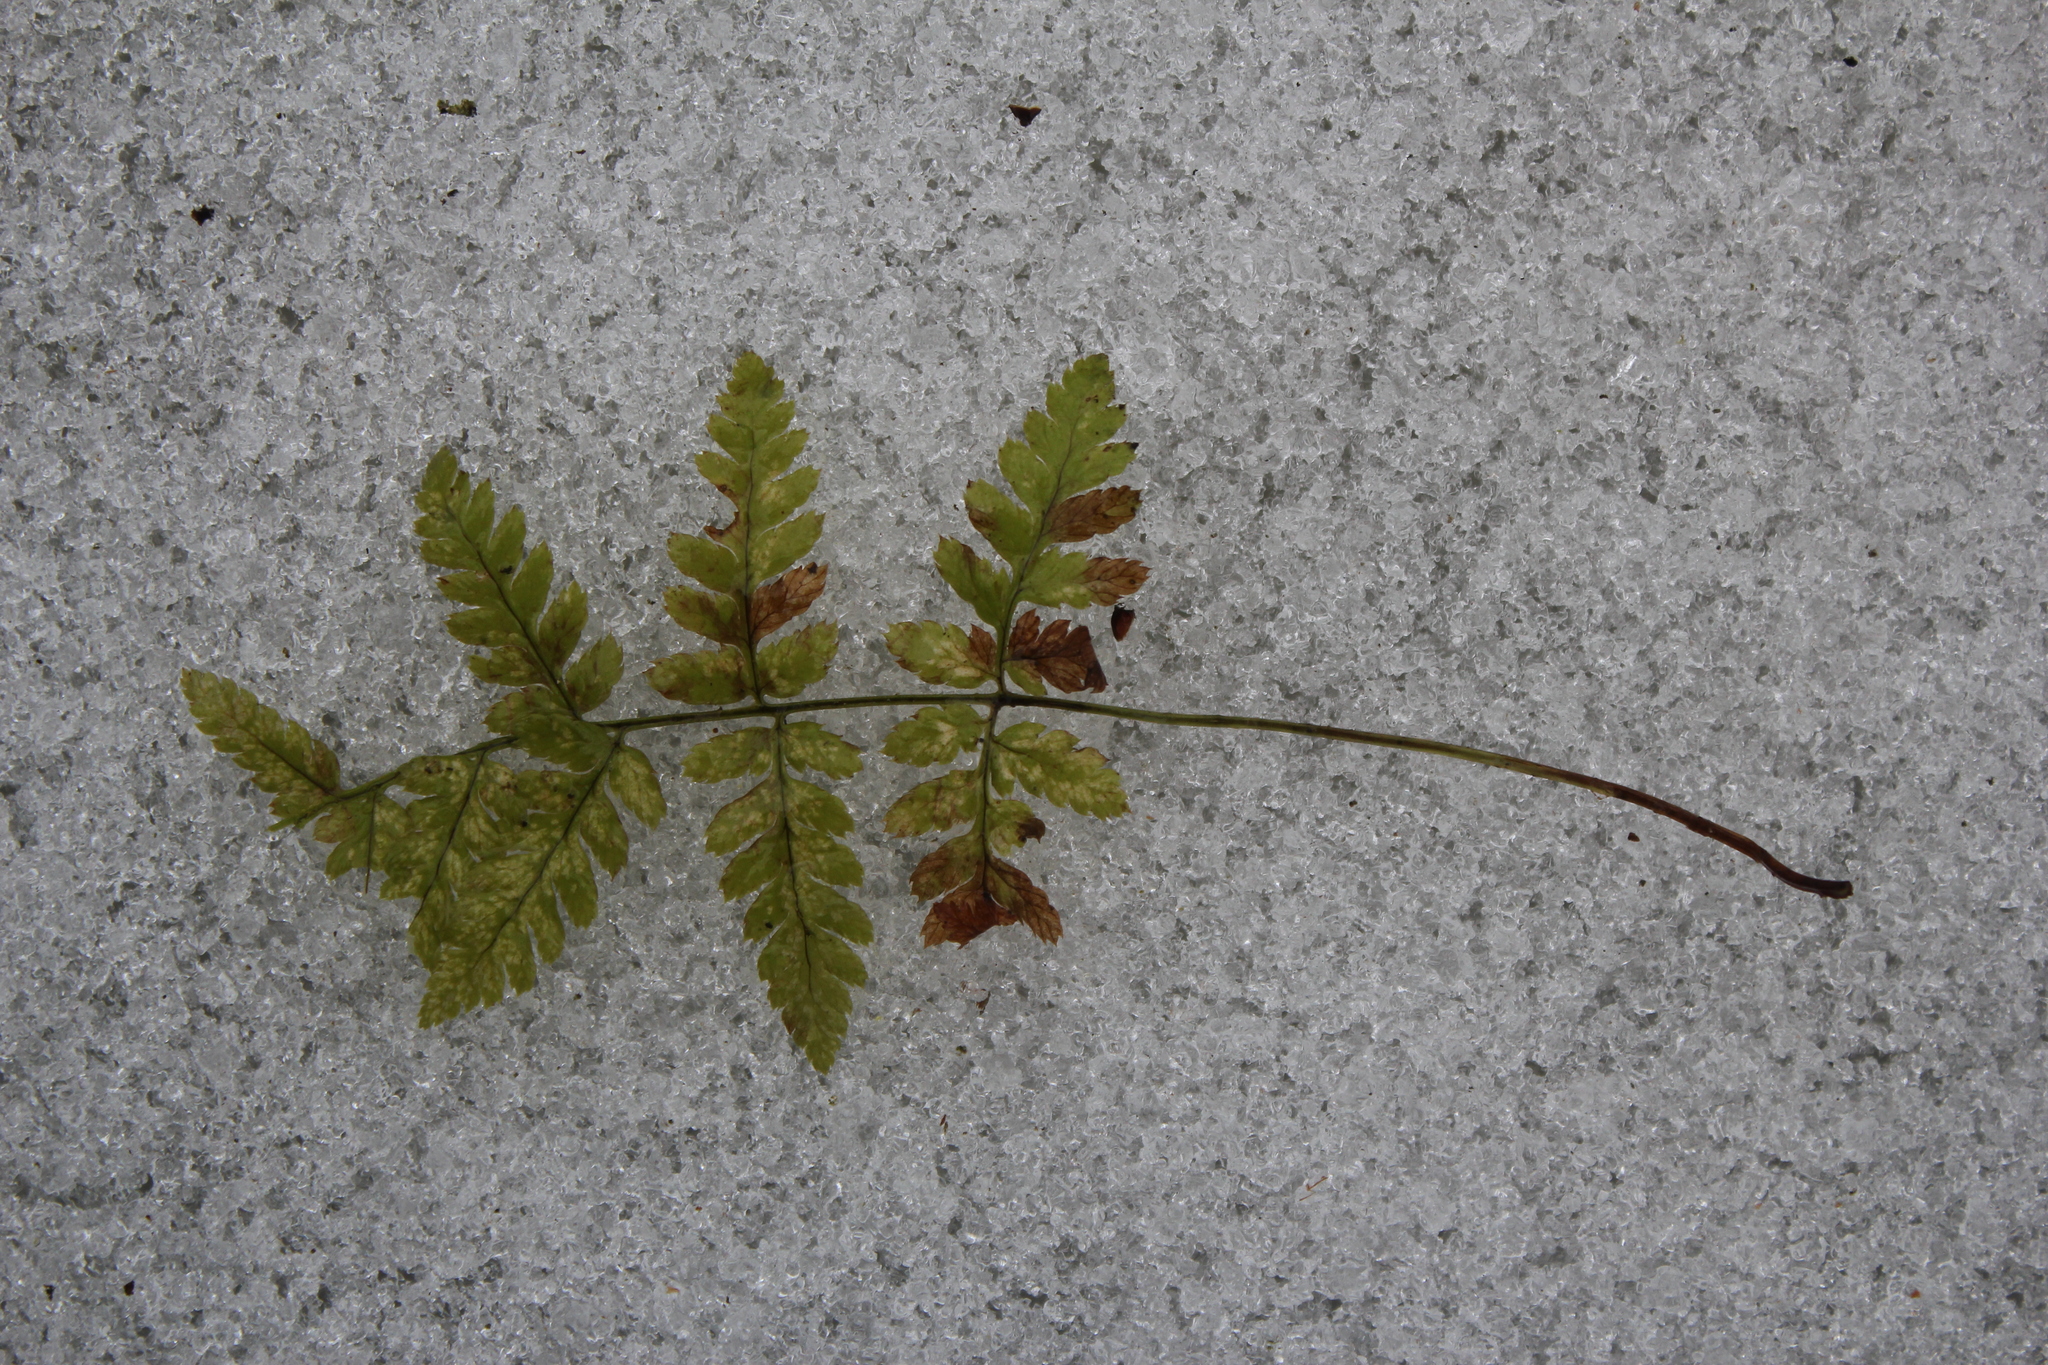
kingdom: Plantae
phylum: Tracheophyta
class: Polypodiopsida
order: Polypodiales
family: Dryopteridaceae
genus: Dryopteris
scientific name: Dryopteris intermedia
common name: Evergreen wood fern
